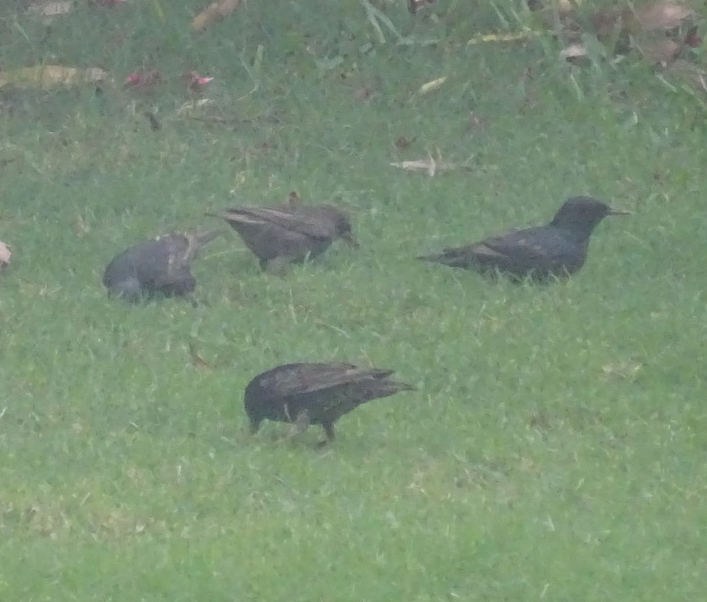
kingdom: Animalia
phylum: Chordata
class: Aves
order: Passeriformes
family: Sturnidae
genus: Sturnus
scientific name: Sturnus vulgaris
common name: Common starling
